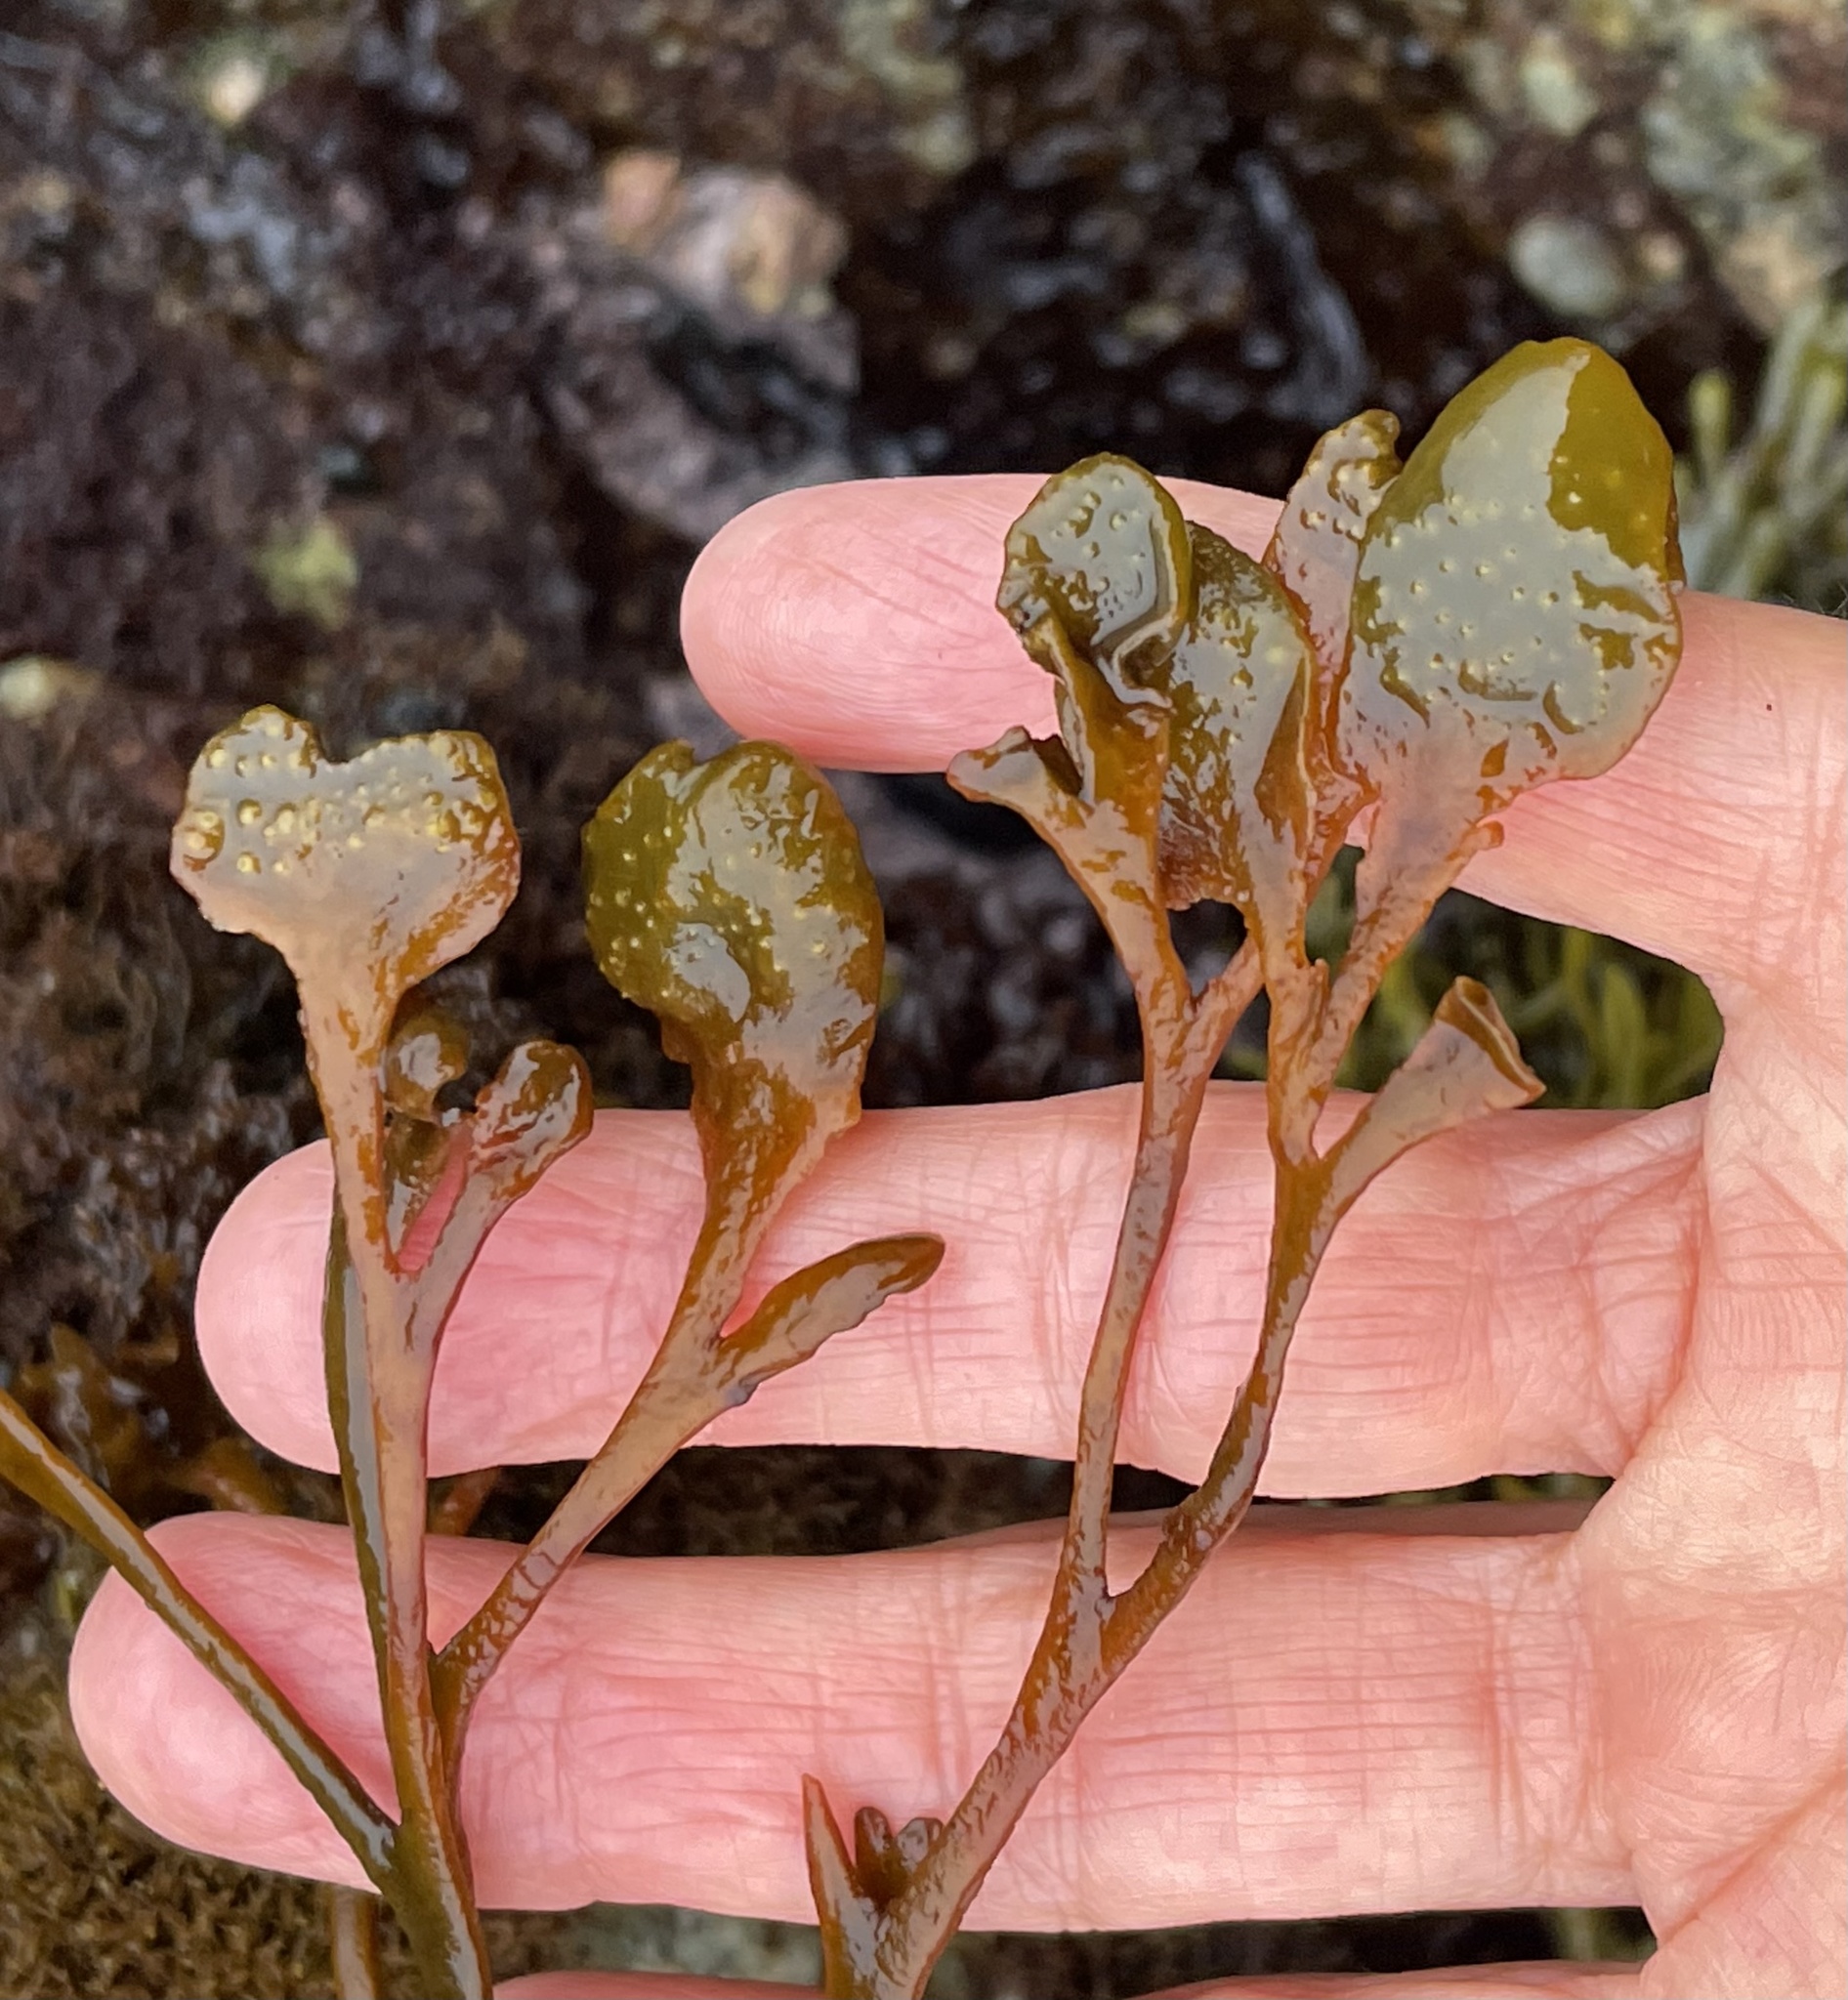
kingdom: Chromista
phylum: Ochrophyta
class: Phaeophyceae
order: Fucales
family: Fucaceae
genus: Fucus
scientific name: Fucus distichus
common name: Rockweed
